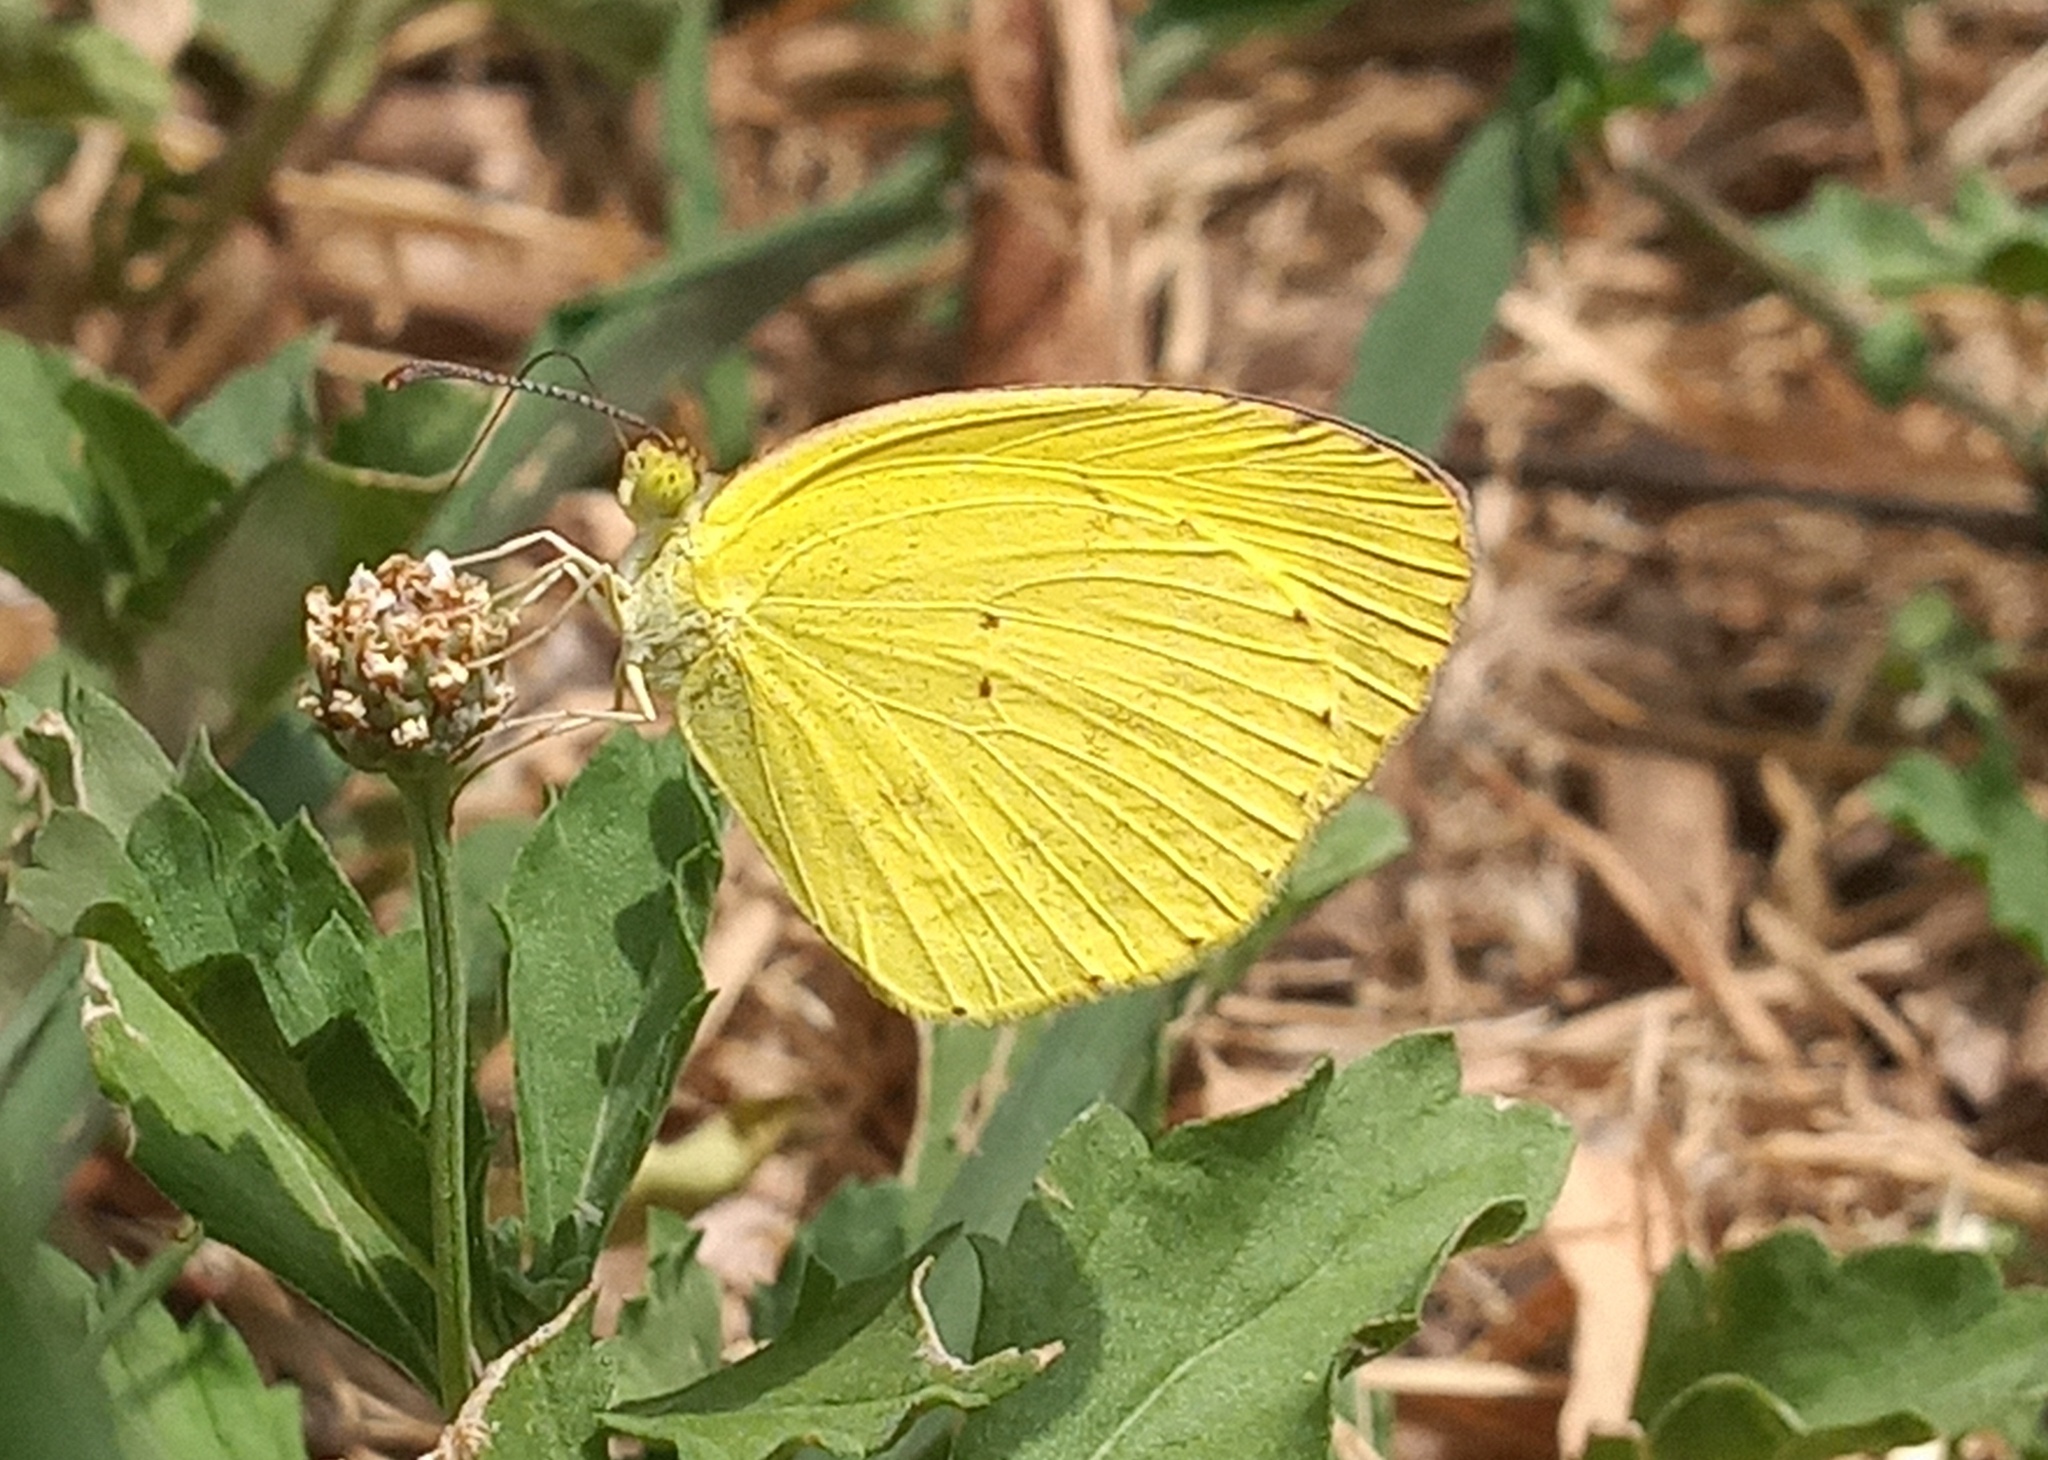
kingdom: Animalia
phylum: Arthropoda
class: Insecta
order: Lepidoptera
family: Pieridae
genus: Pyrisitia
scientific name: Pyrisitia nise
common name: Mimosa yellow
